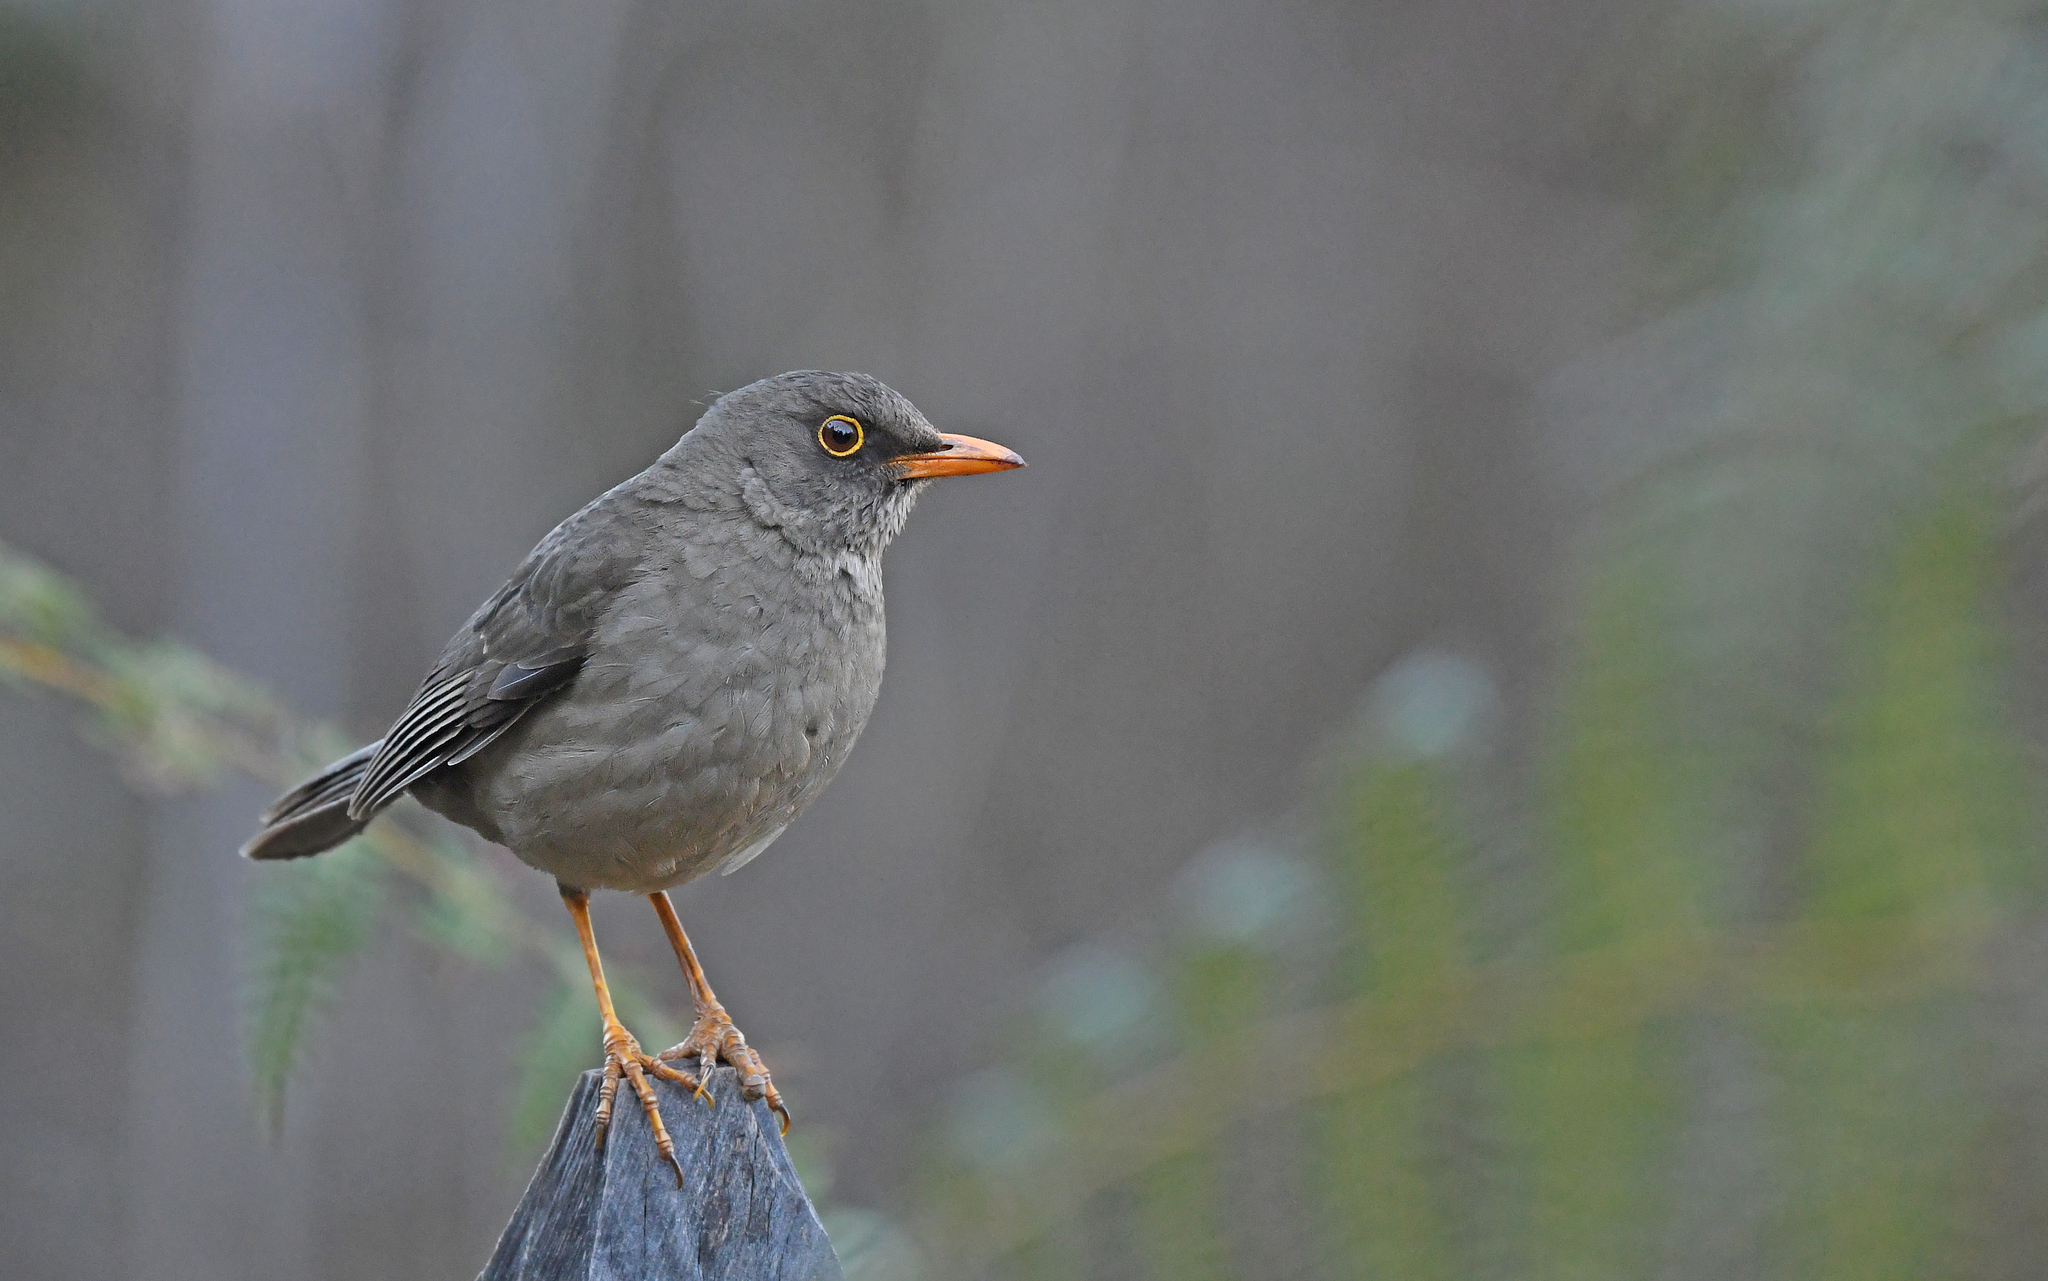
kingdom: Animalia
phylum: Chordata
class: Aves
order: Passeriformes
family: Turdidae
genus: Turdus
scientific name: Turdus fuscater
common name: Great thrush
